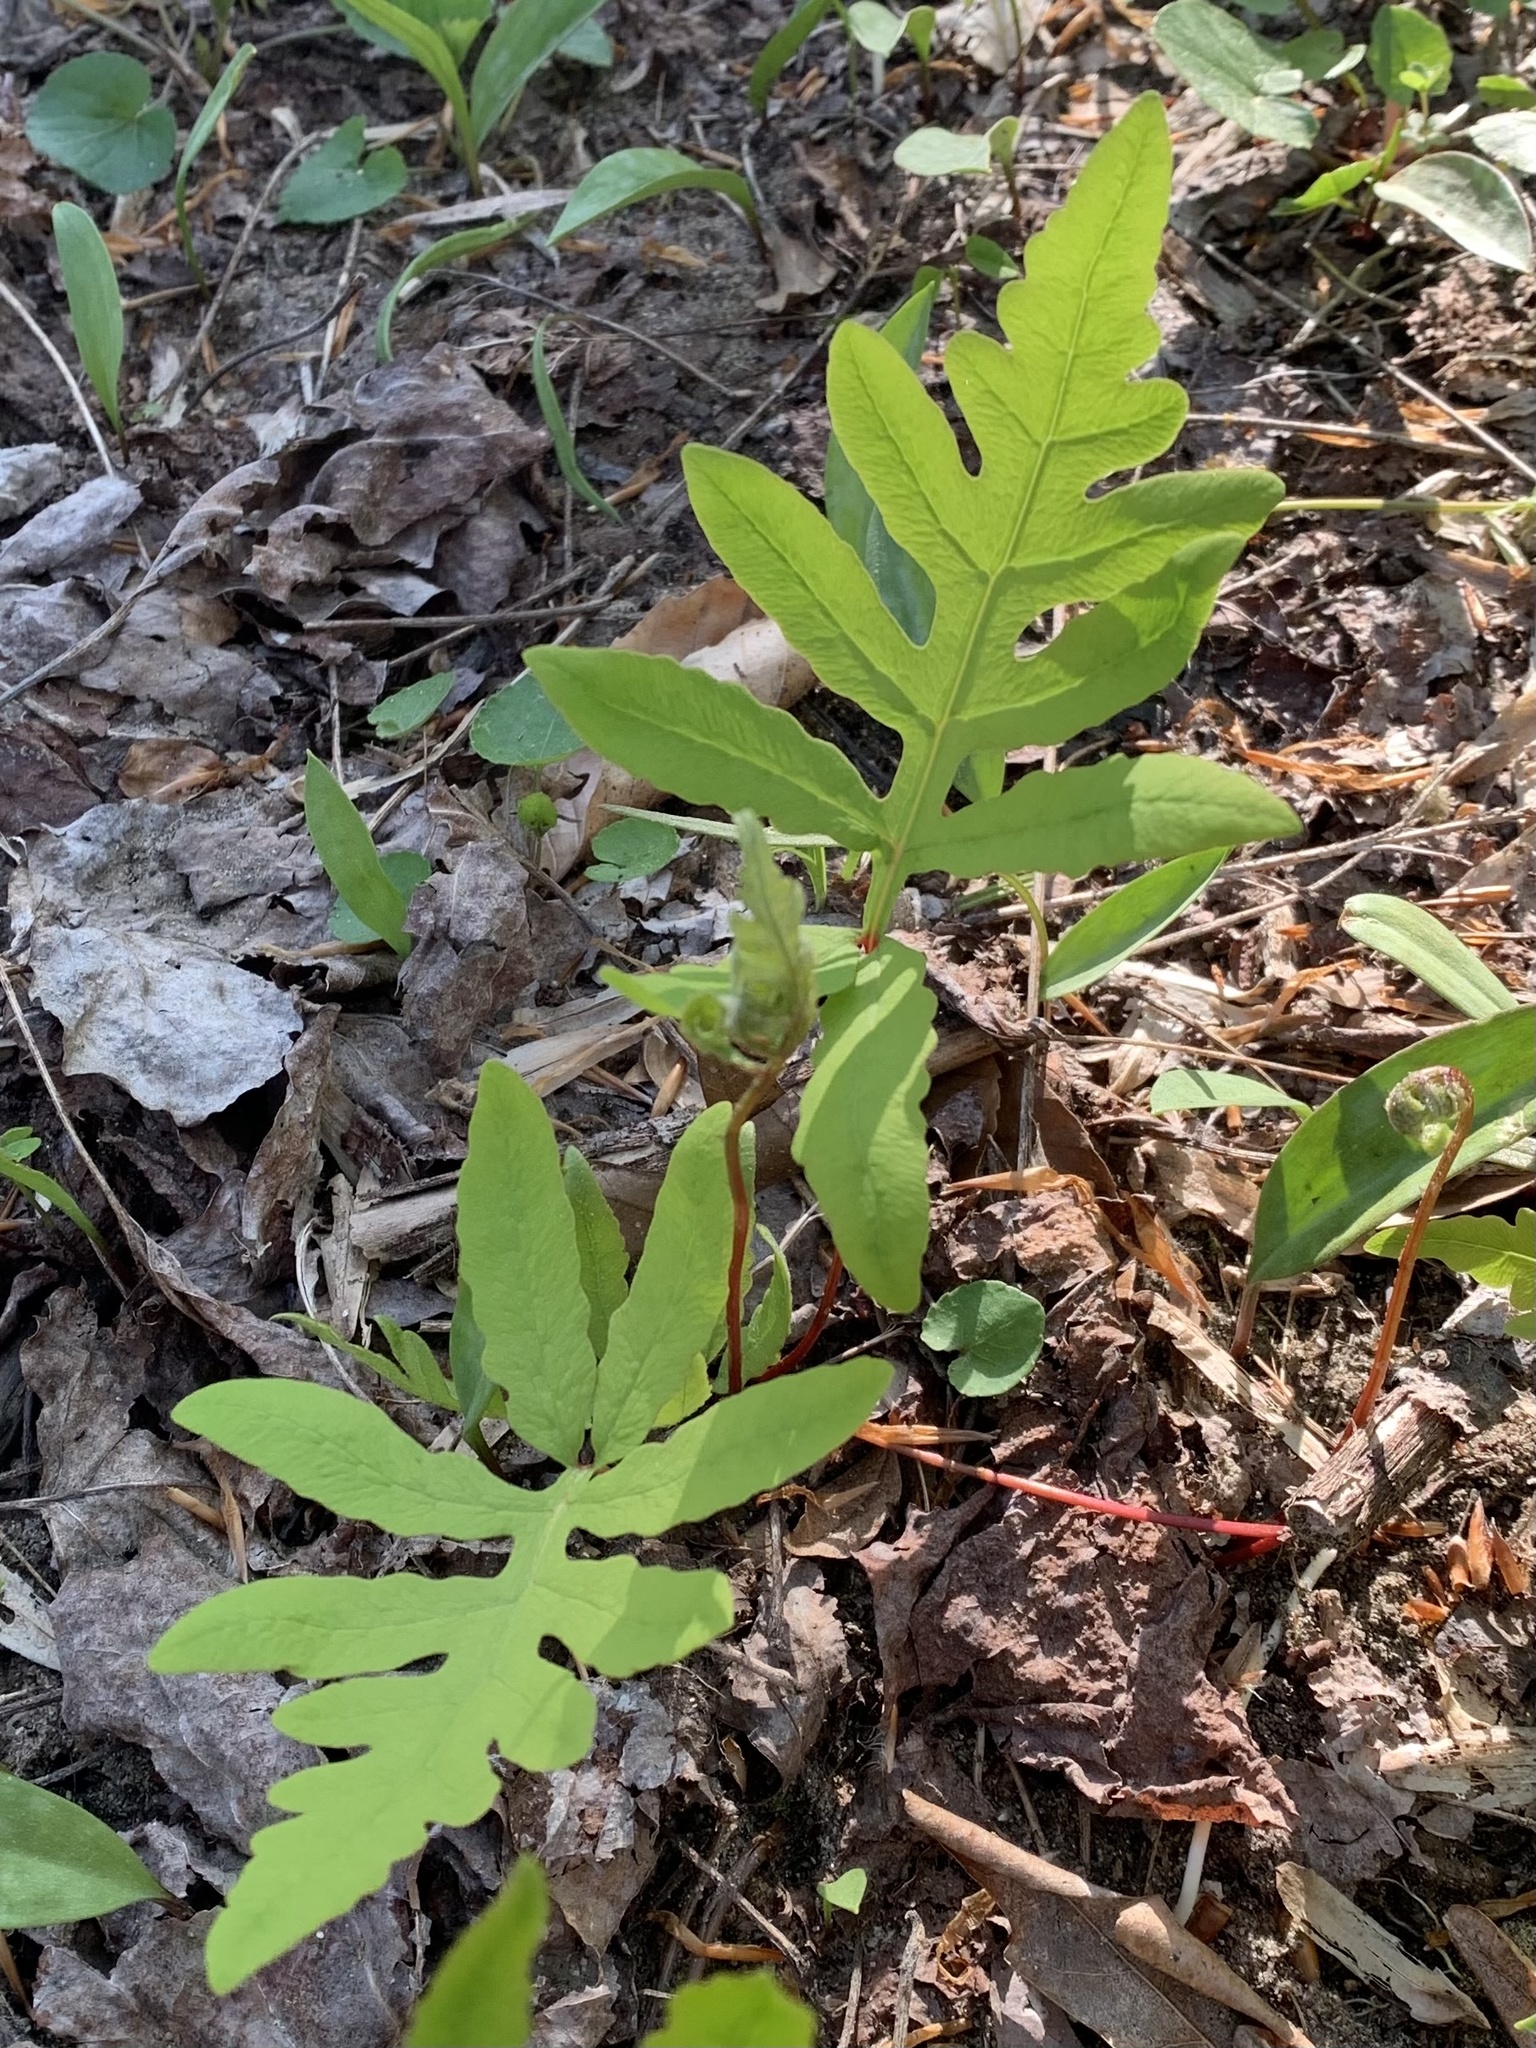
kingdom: Plantae
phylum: Tracheophyta
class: Polypodiopsida
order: Polypodiales
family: Onocleaceae
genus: Onoclea
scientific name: Onoclea sensibilis
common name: Sensitive fern
